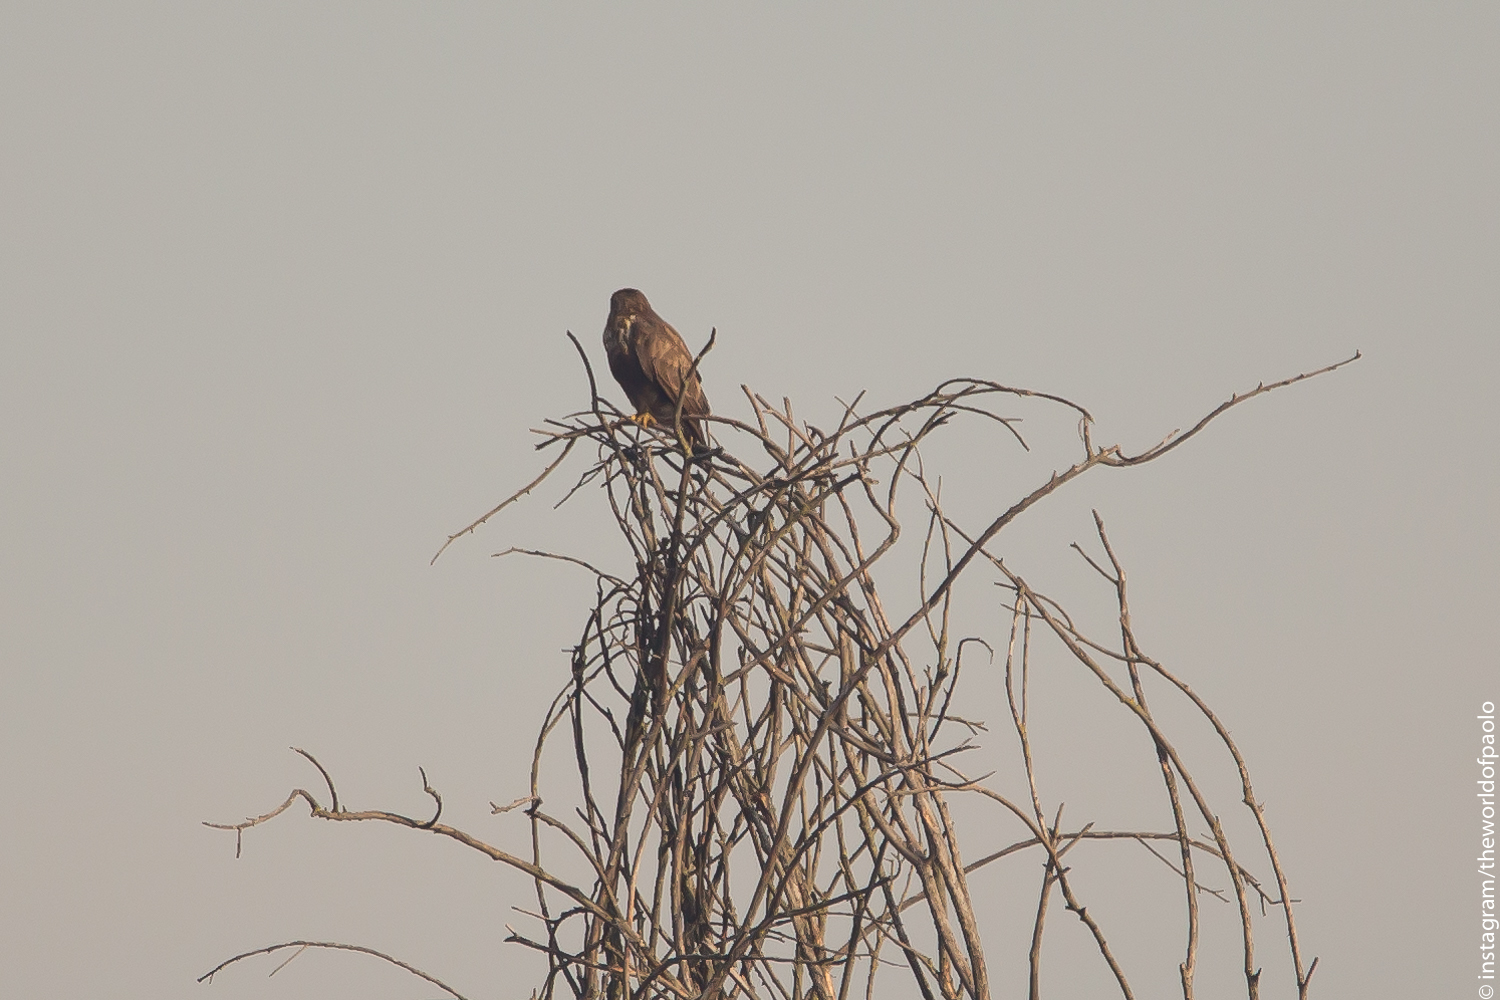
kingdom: Animalia
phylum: Chordata
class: Aves
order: Accipitriformes
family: Accipitridae
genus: Buteo
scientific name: Buteo buteo
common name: Common buzzard
